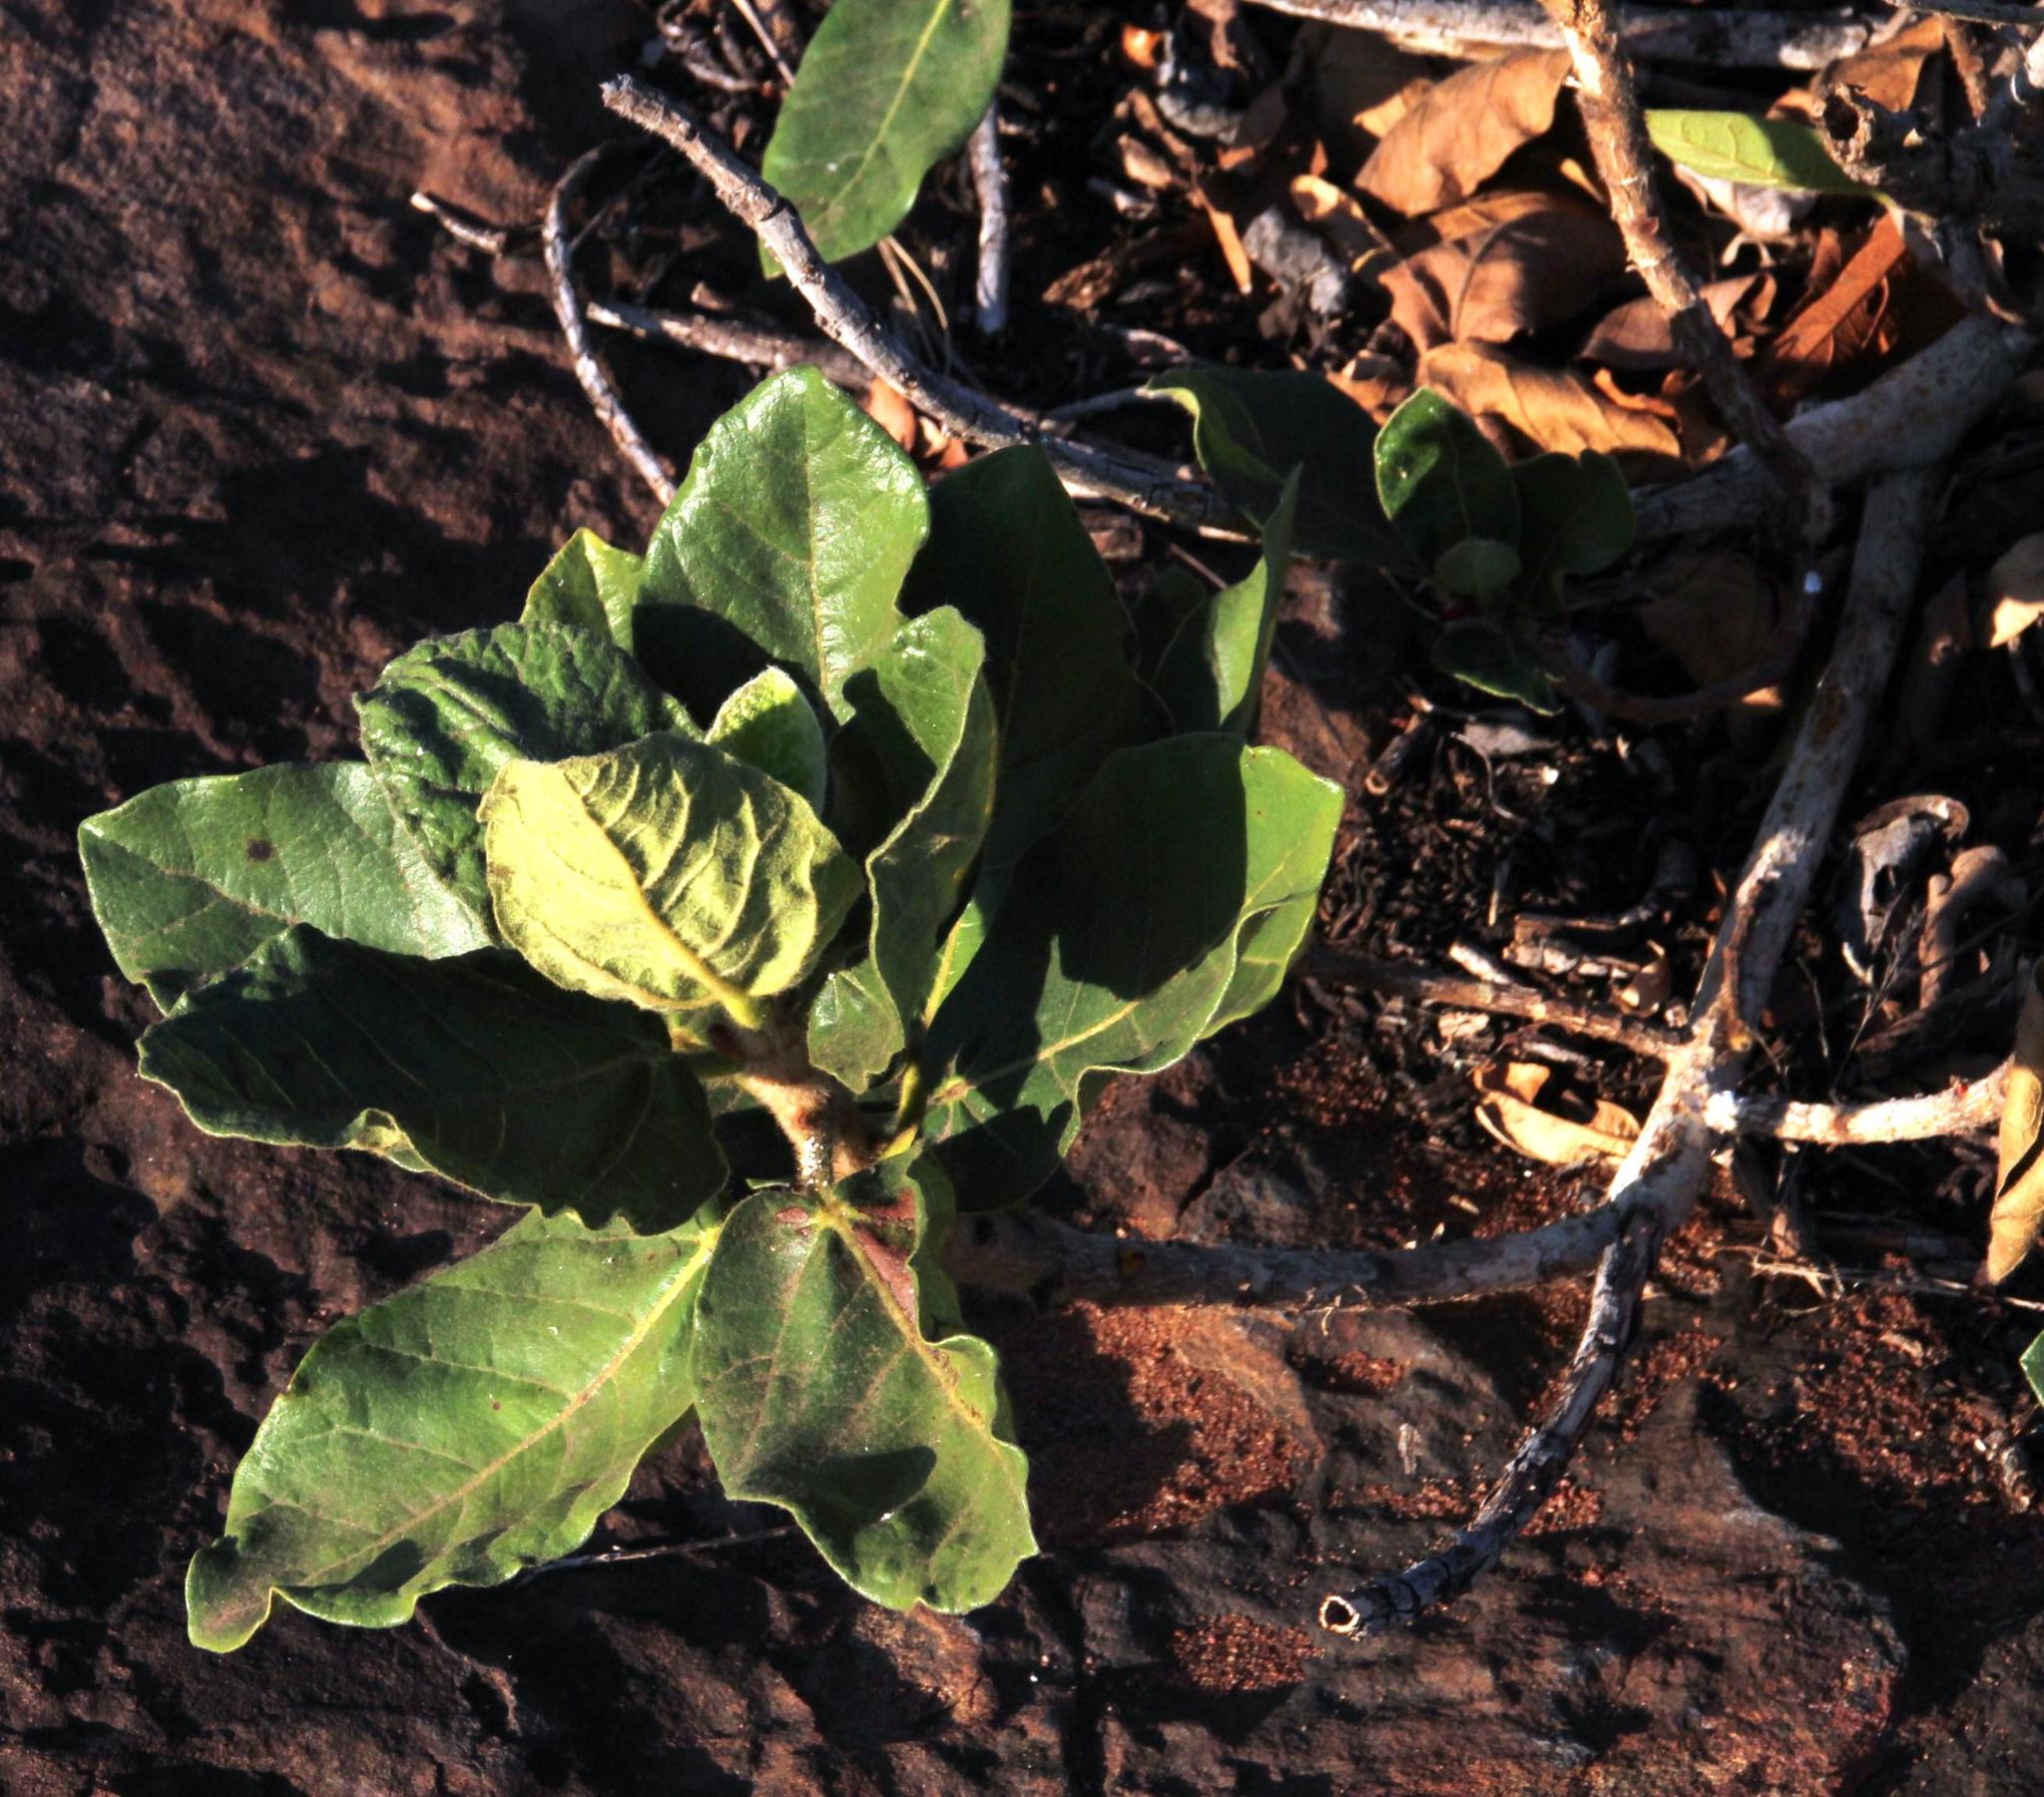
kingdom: Plantae
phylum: Tracheophyta
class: Magnoliopsida
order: Rosales
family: Moraceae
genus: Ficus
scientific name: Ficus glumosa
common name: Hairy rock fig
